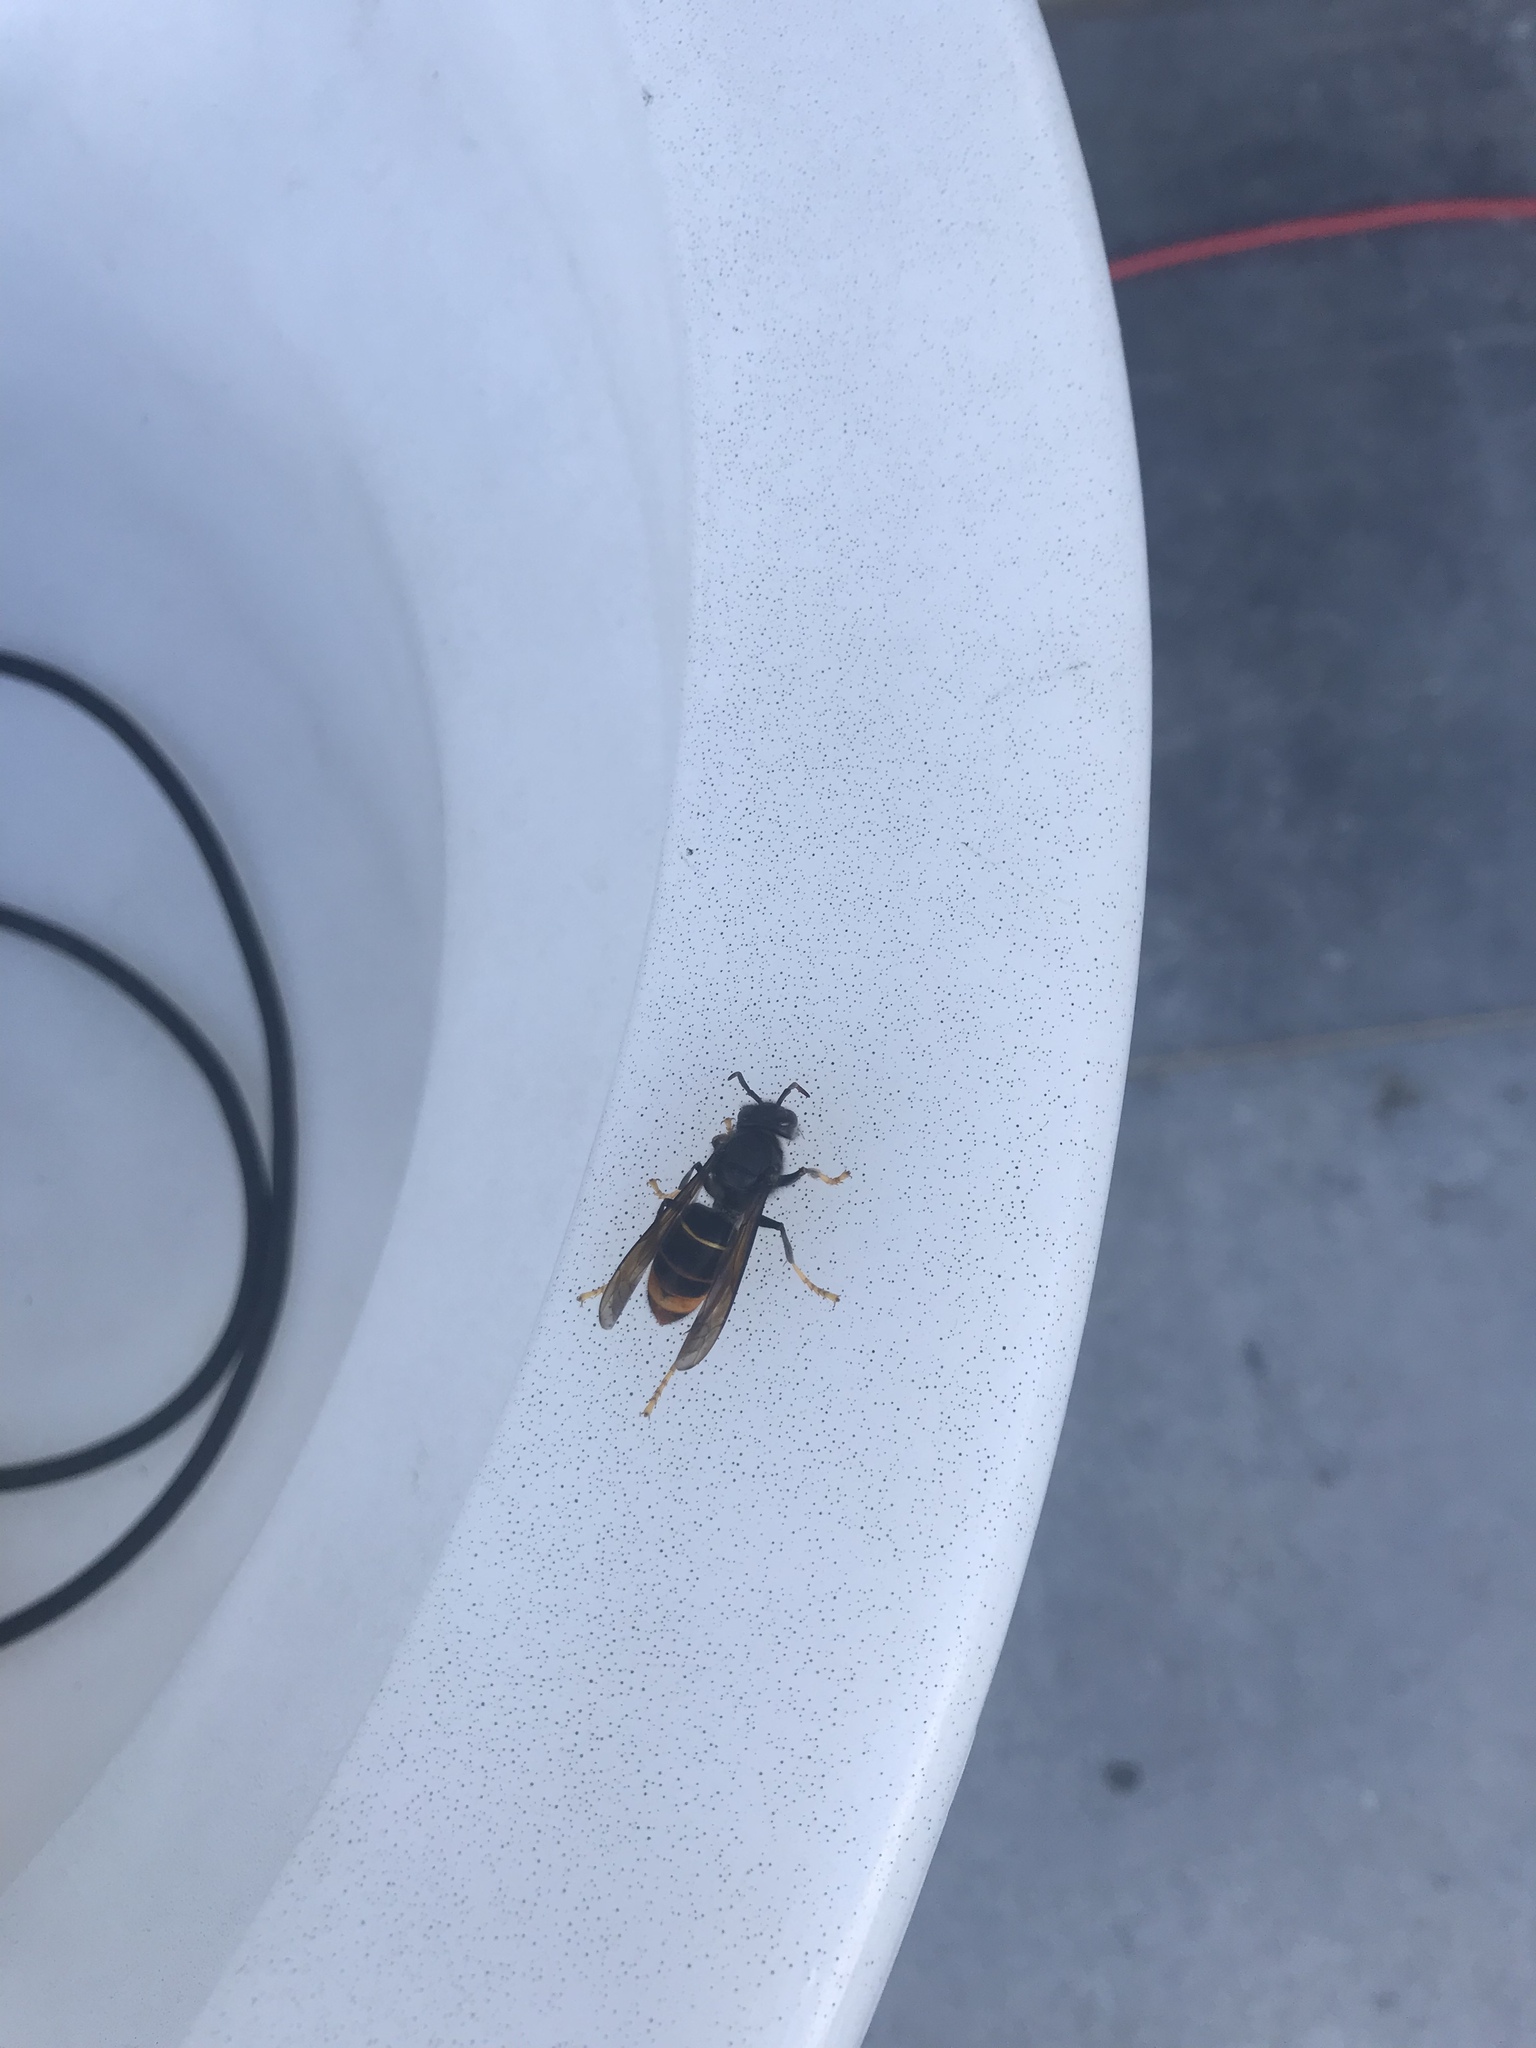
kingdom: Animalia
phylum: Arthropoda
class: Insecta
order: Hymenoptera
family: Vespidae
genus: Vespa
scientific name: Vespa velutina
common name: Asian hornet
